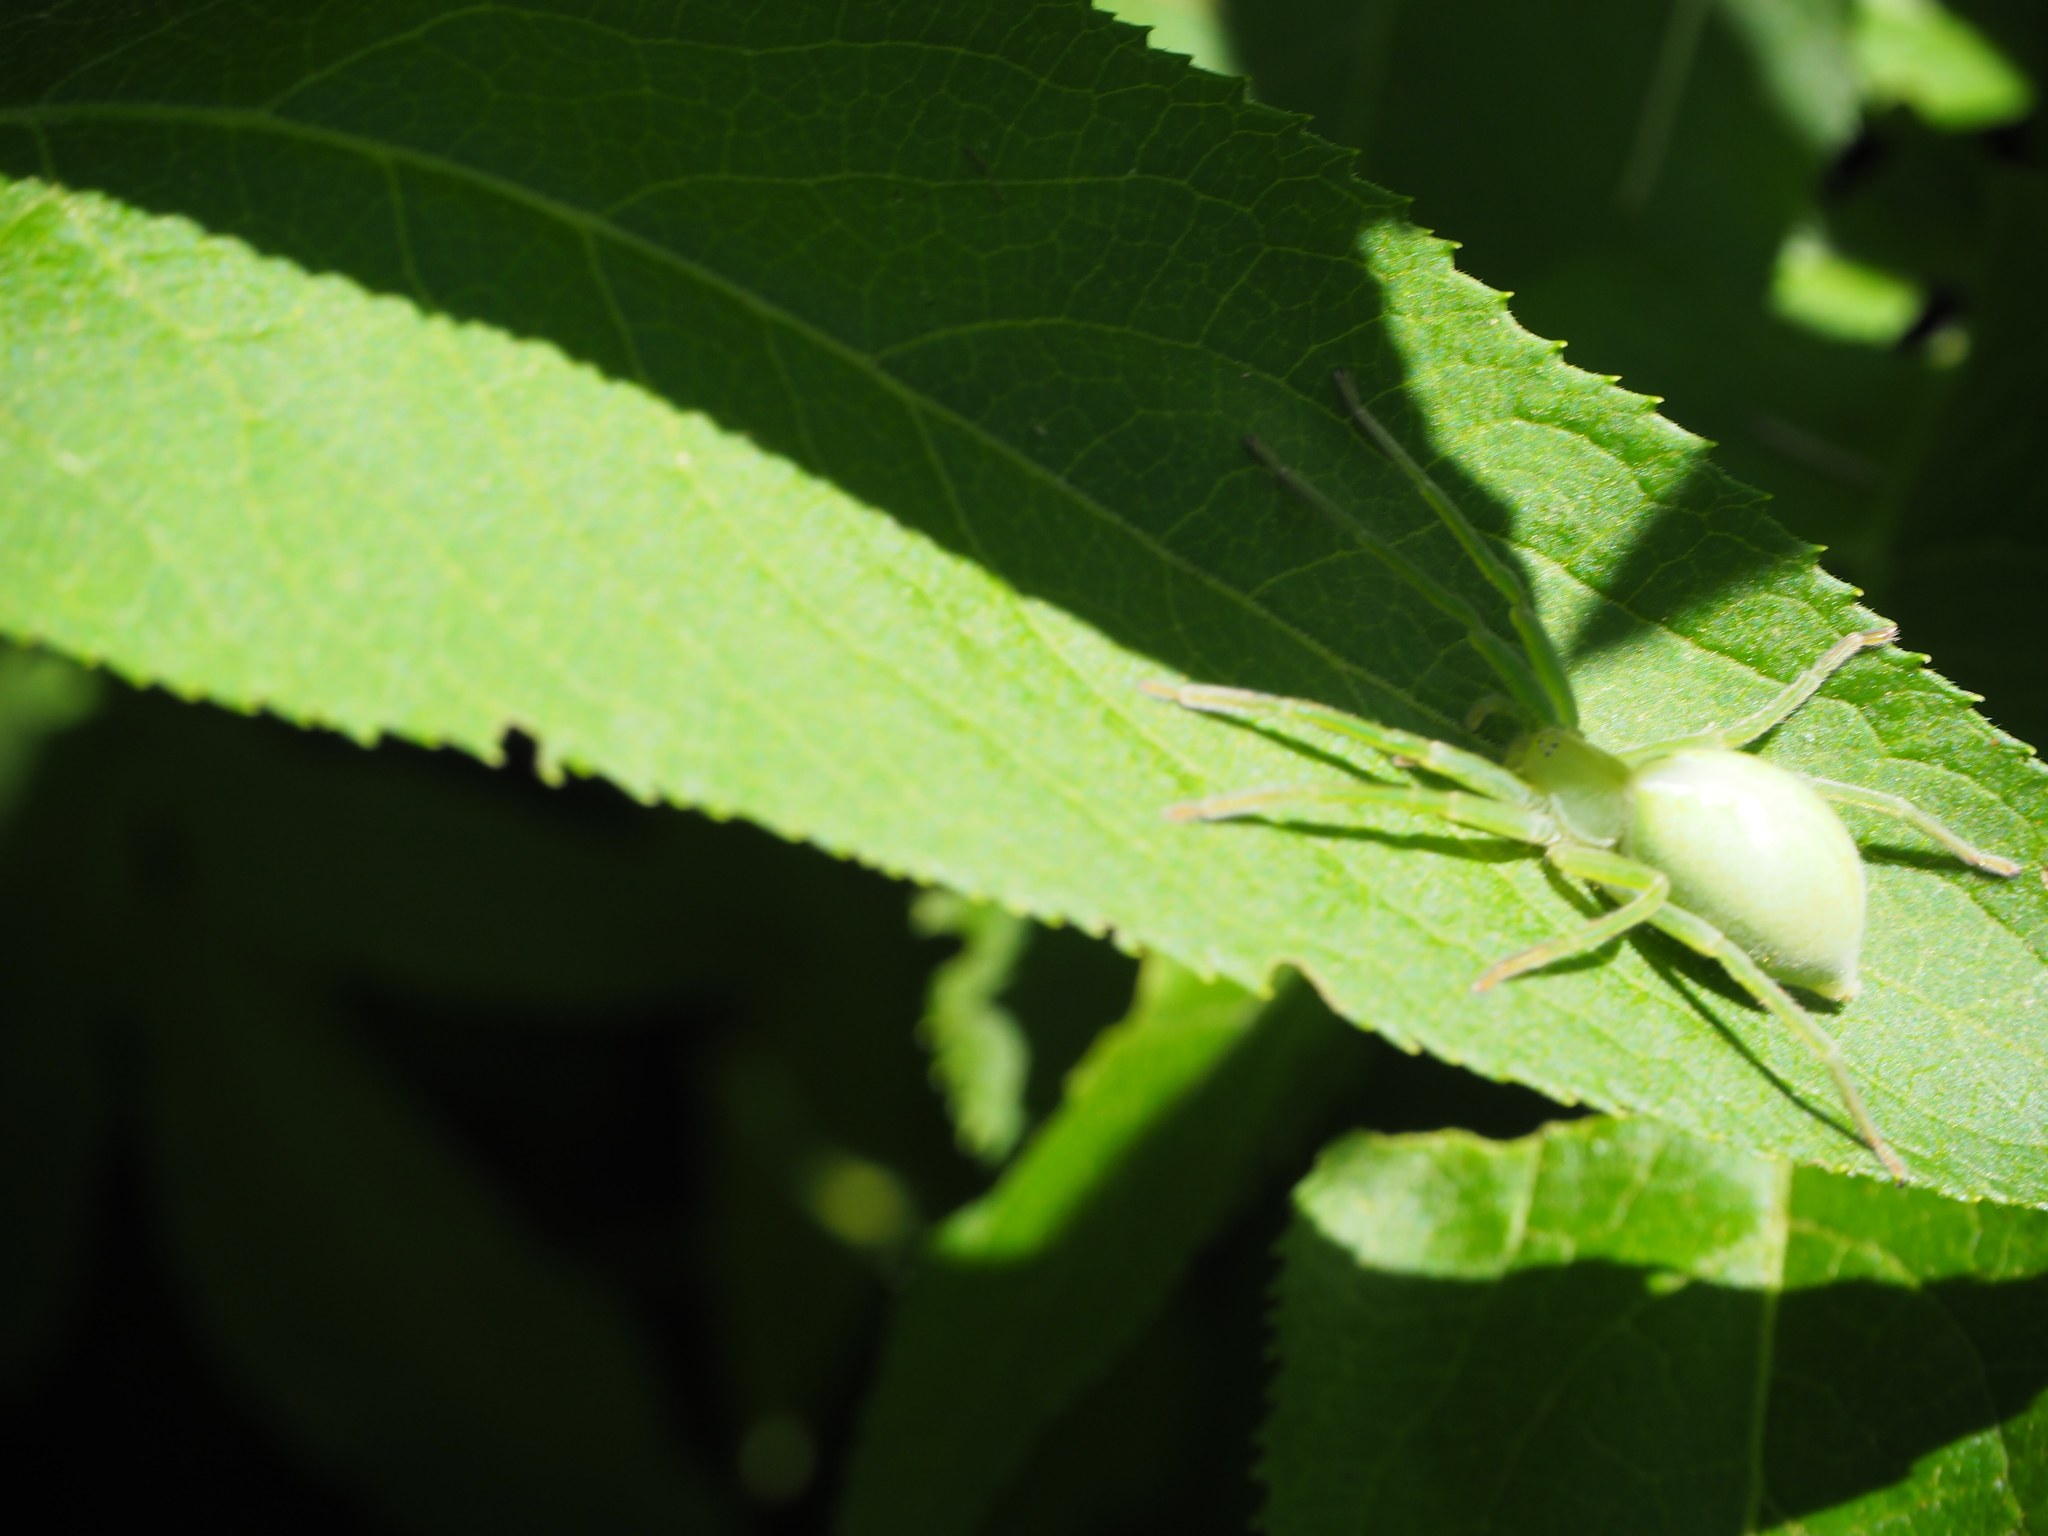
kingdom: Animalia
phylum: Arthropoda
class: Arachnida
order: Araneae
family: Sparassidae
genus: Micrommata
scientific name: Micrommata virescens
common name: Green spider
